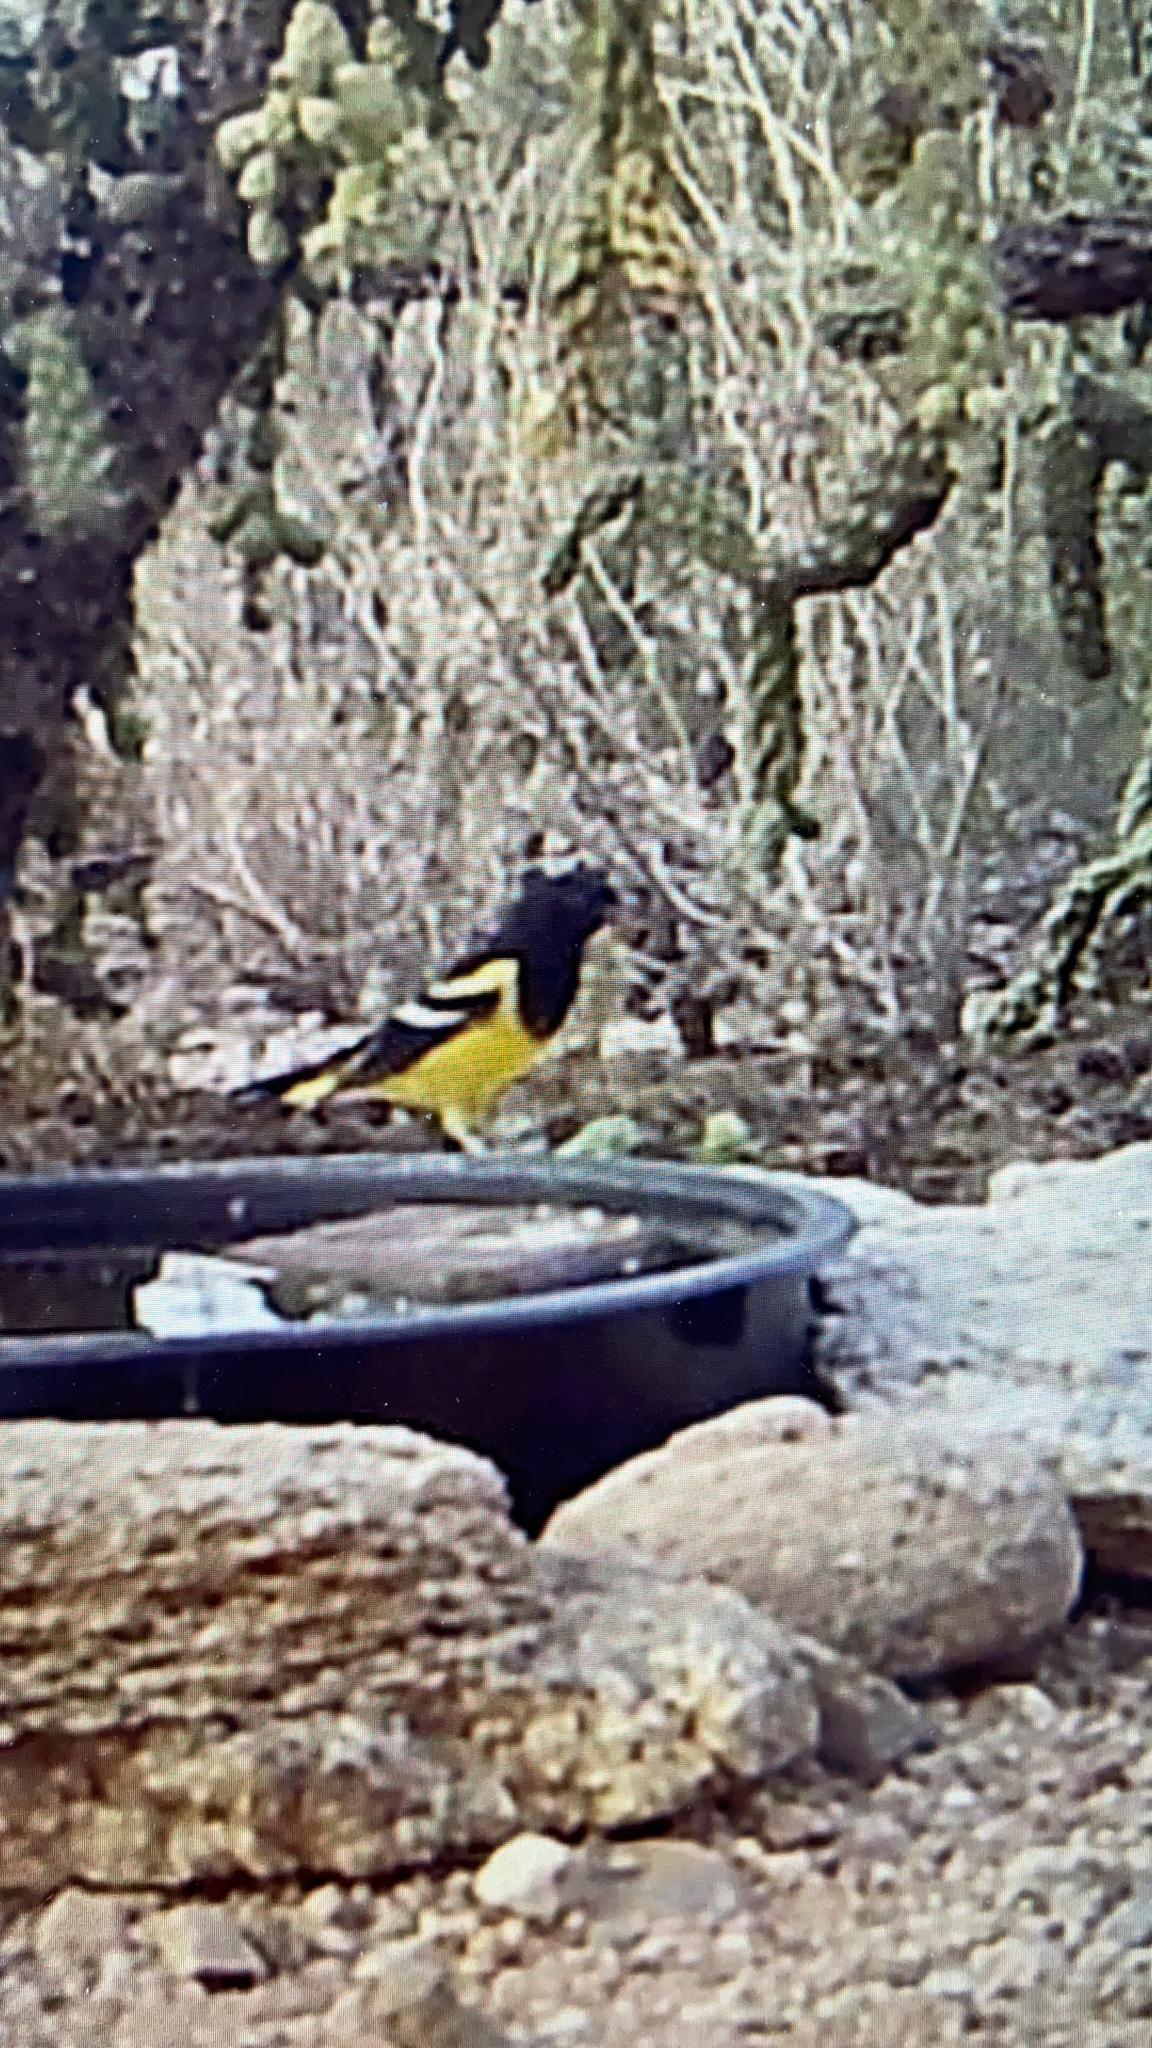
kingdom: Animalia
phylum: Chordata
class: Aves
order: Passeriformes
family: Icteridae
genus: Icterus
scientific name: Icterus parisorum
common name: Scott's oriole
